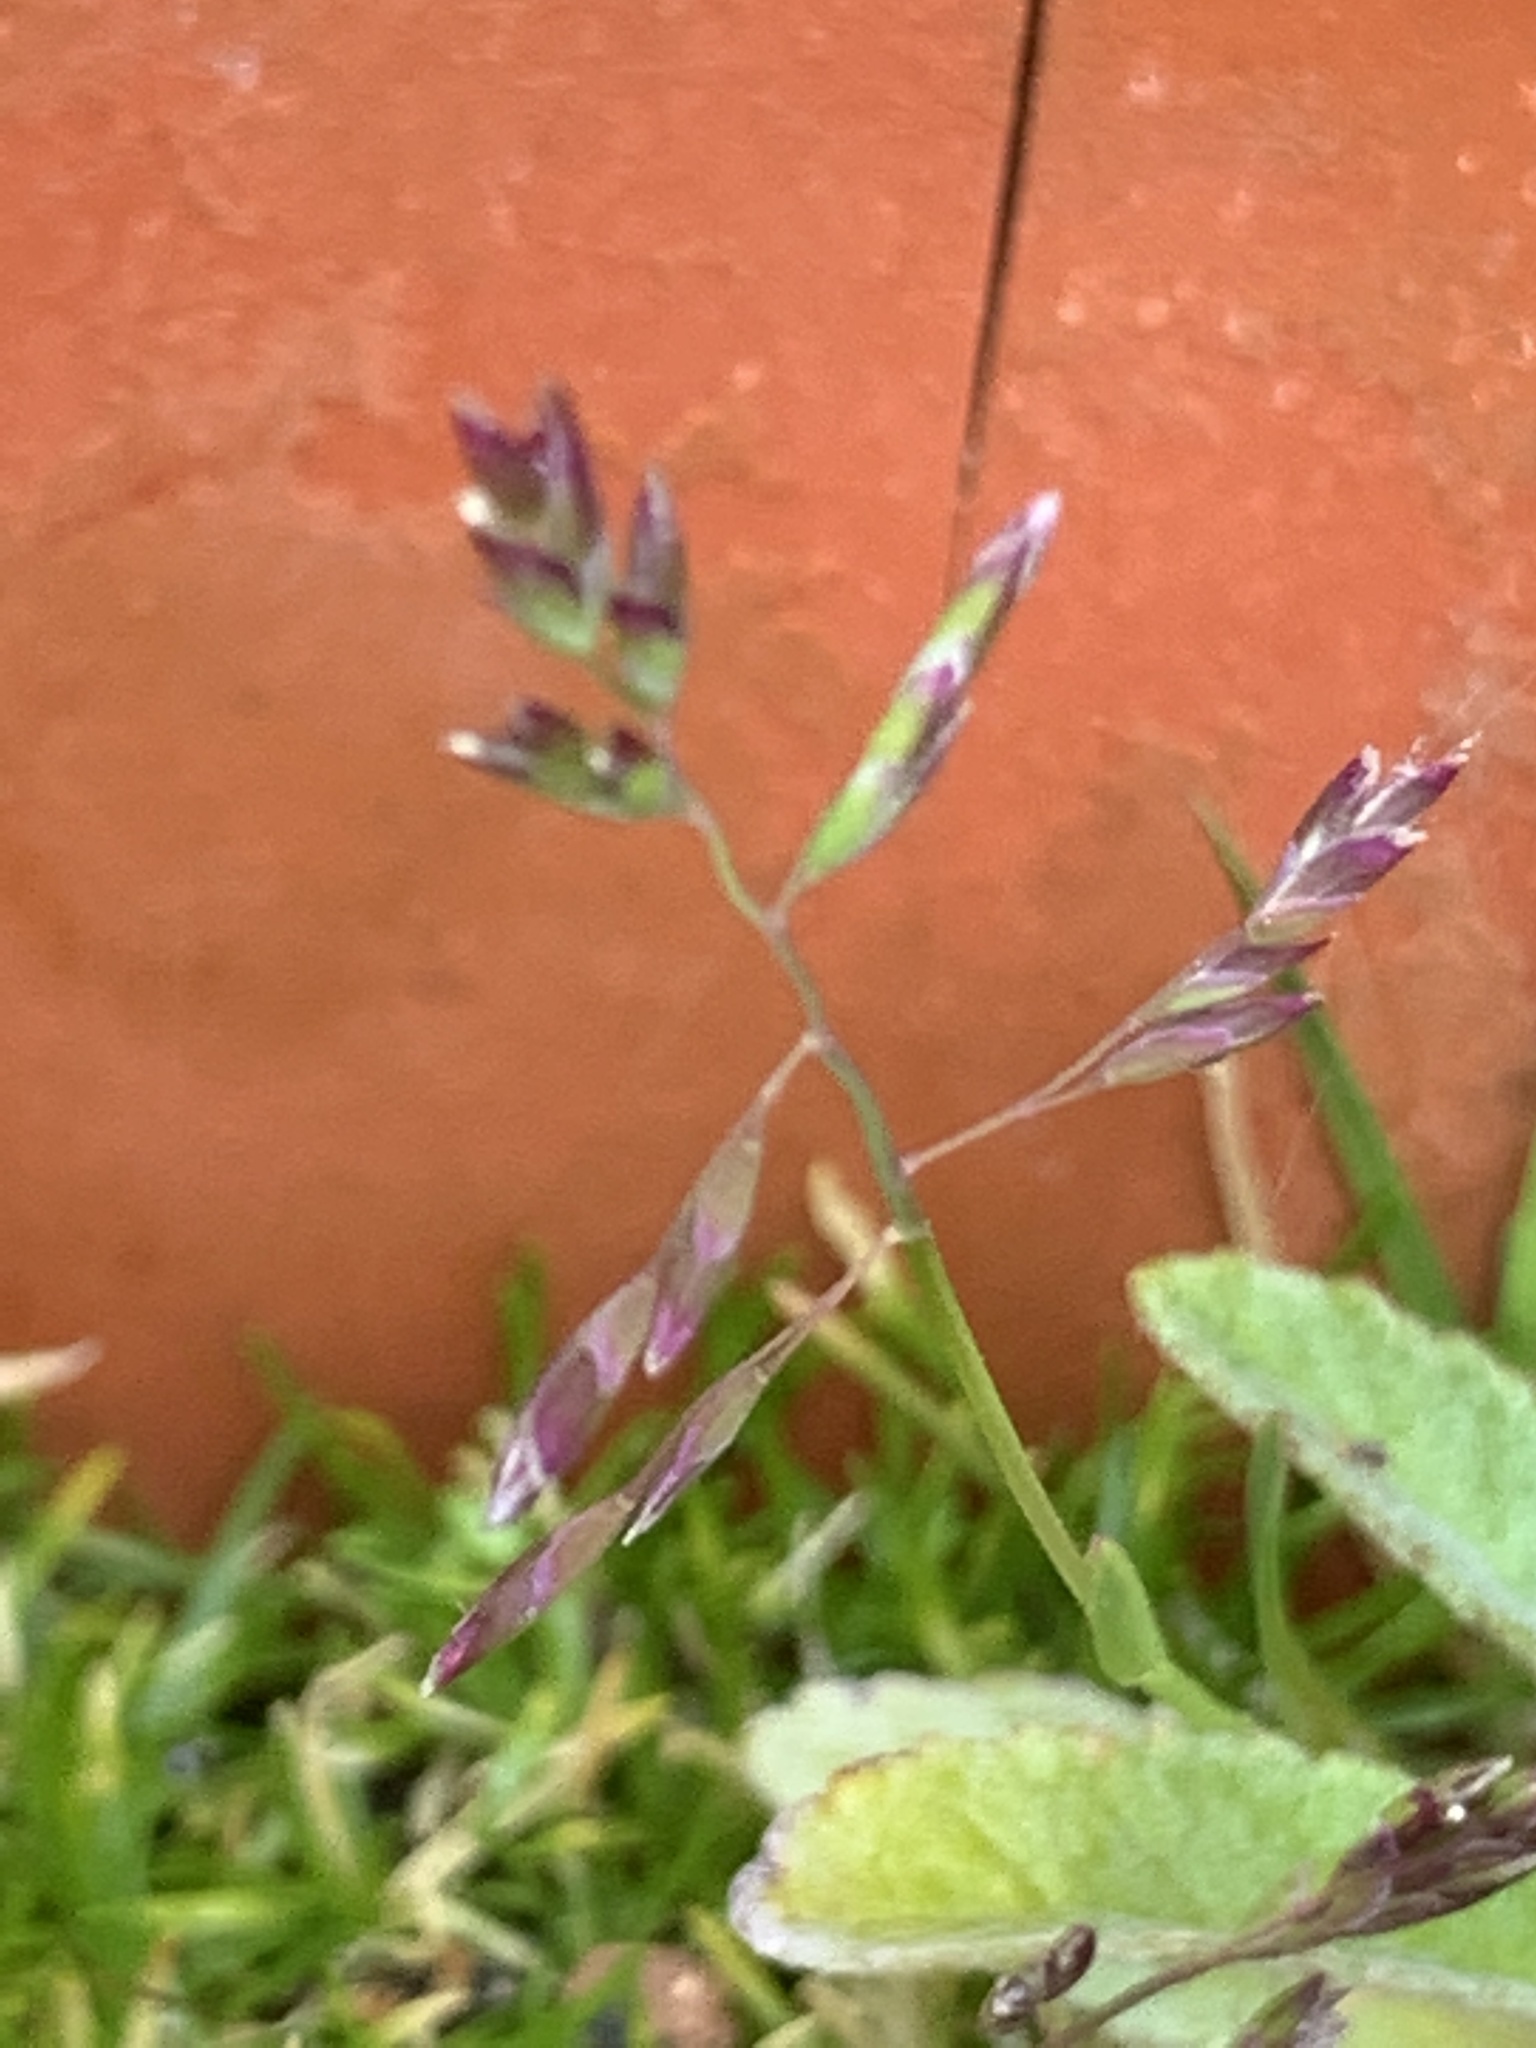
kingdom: Plantae
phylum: Tracheophyta
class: Liliopsida
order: Poales
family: Poaceae
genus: Poa
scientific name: Poa annua
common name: Annual bluegrass
